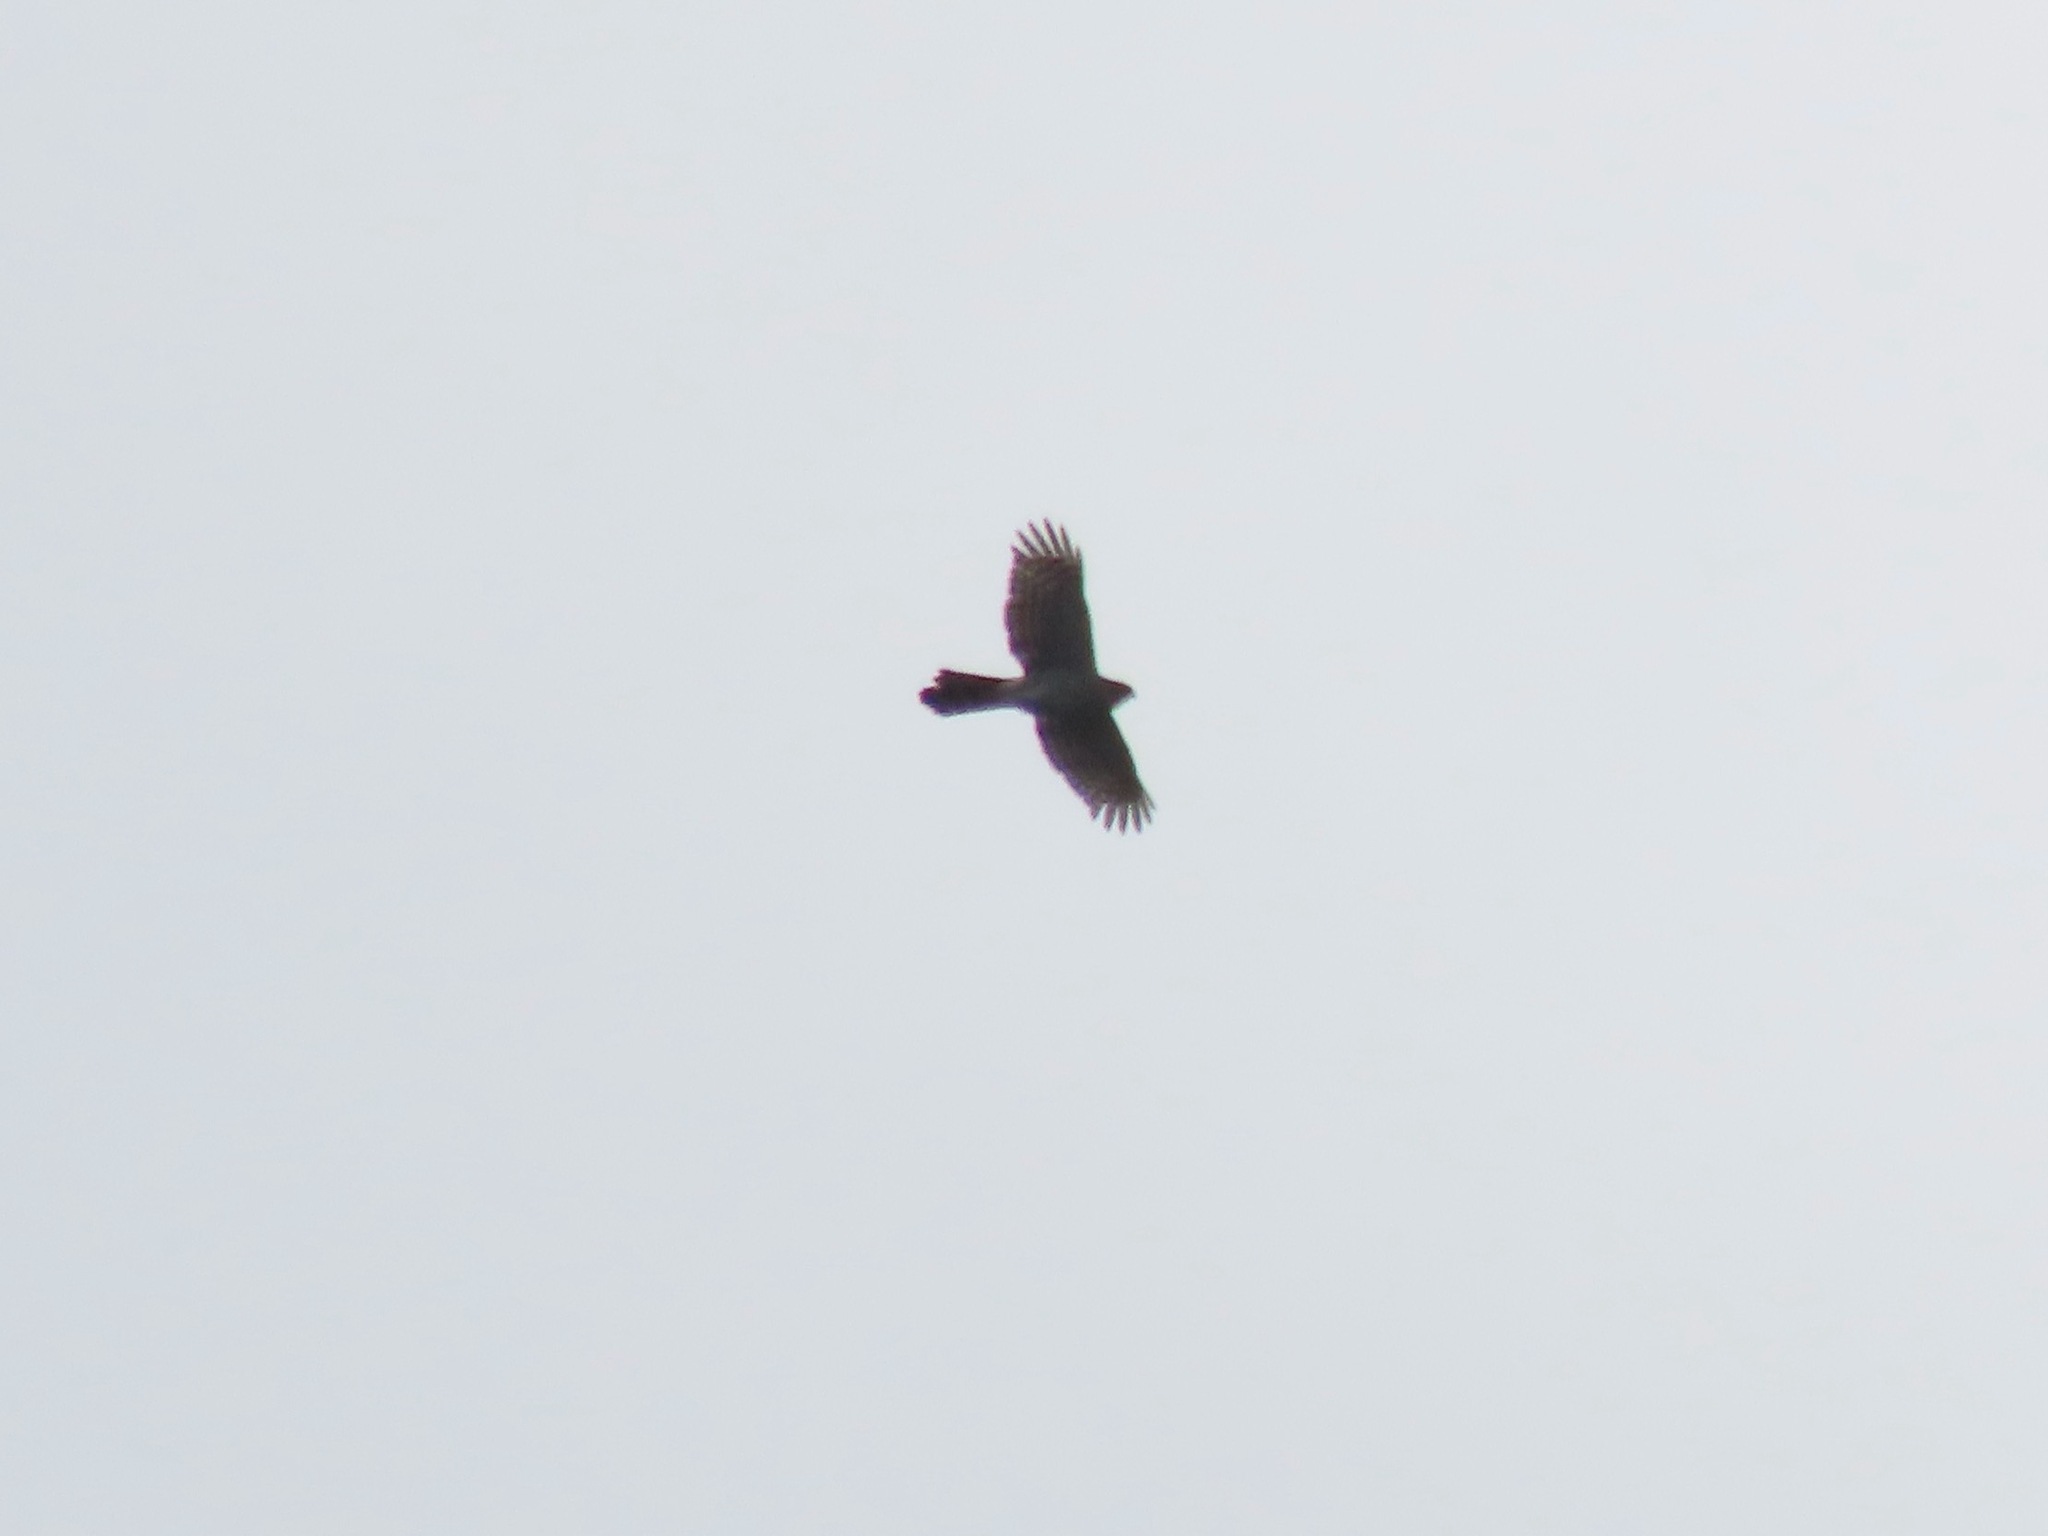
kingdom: Animalia
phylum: Chordata
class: Aves
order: Accipitriformes
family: Accipitridae
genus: Accipiter
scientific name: Accipiter cooperii
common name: Cooper's hawk
